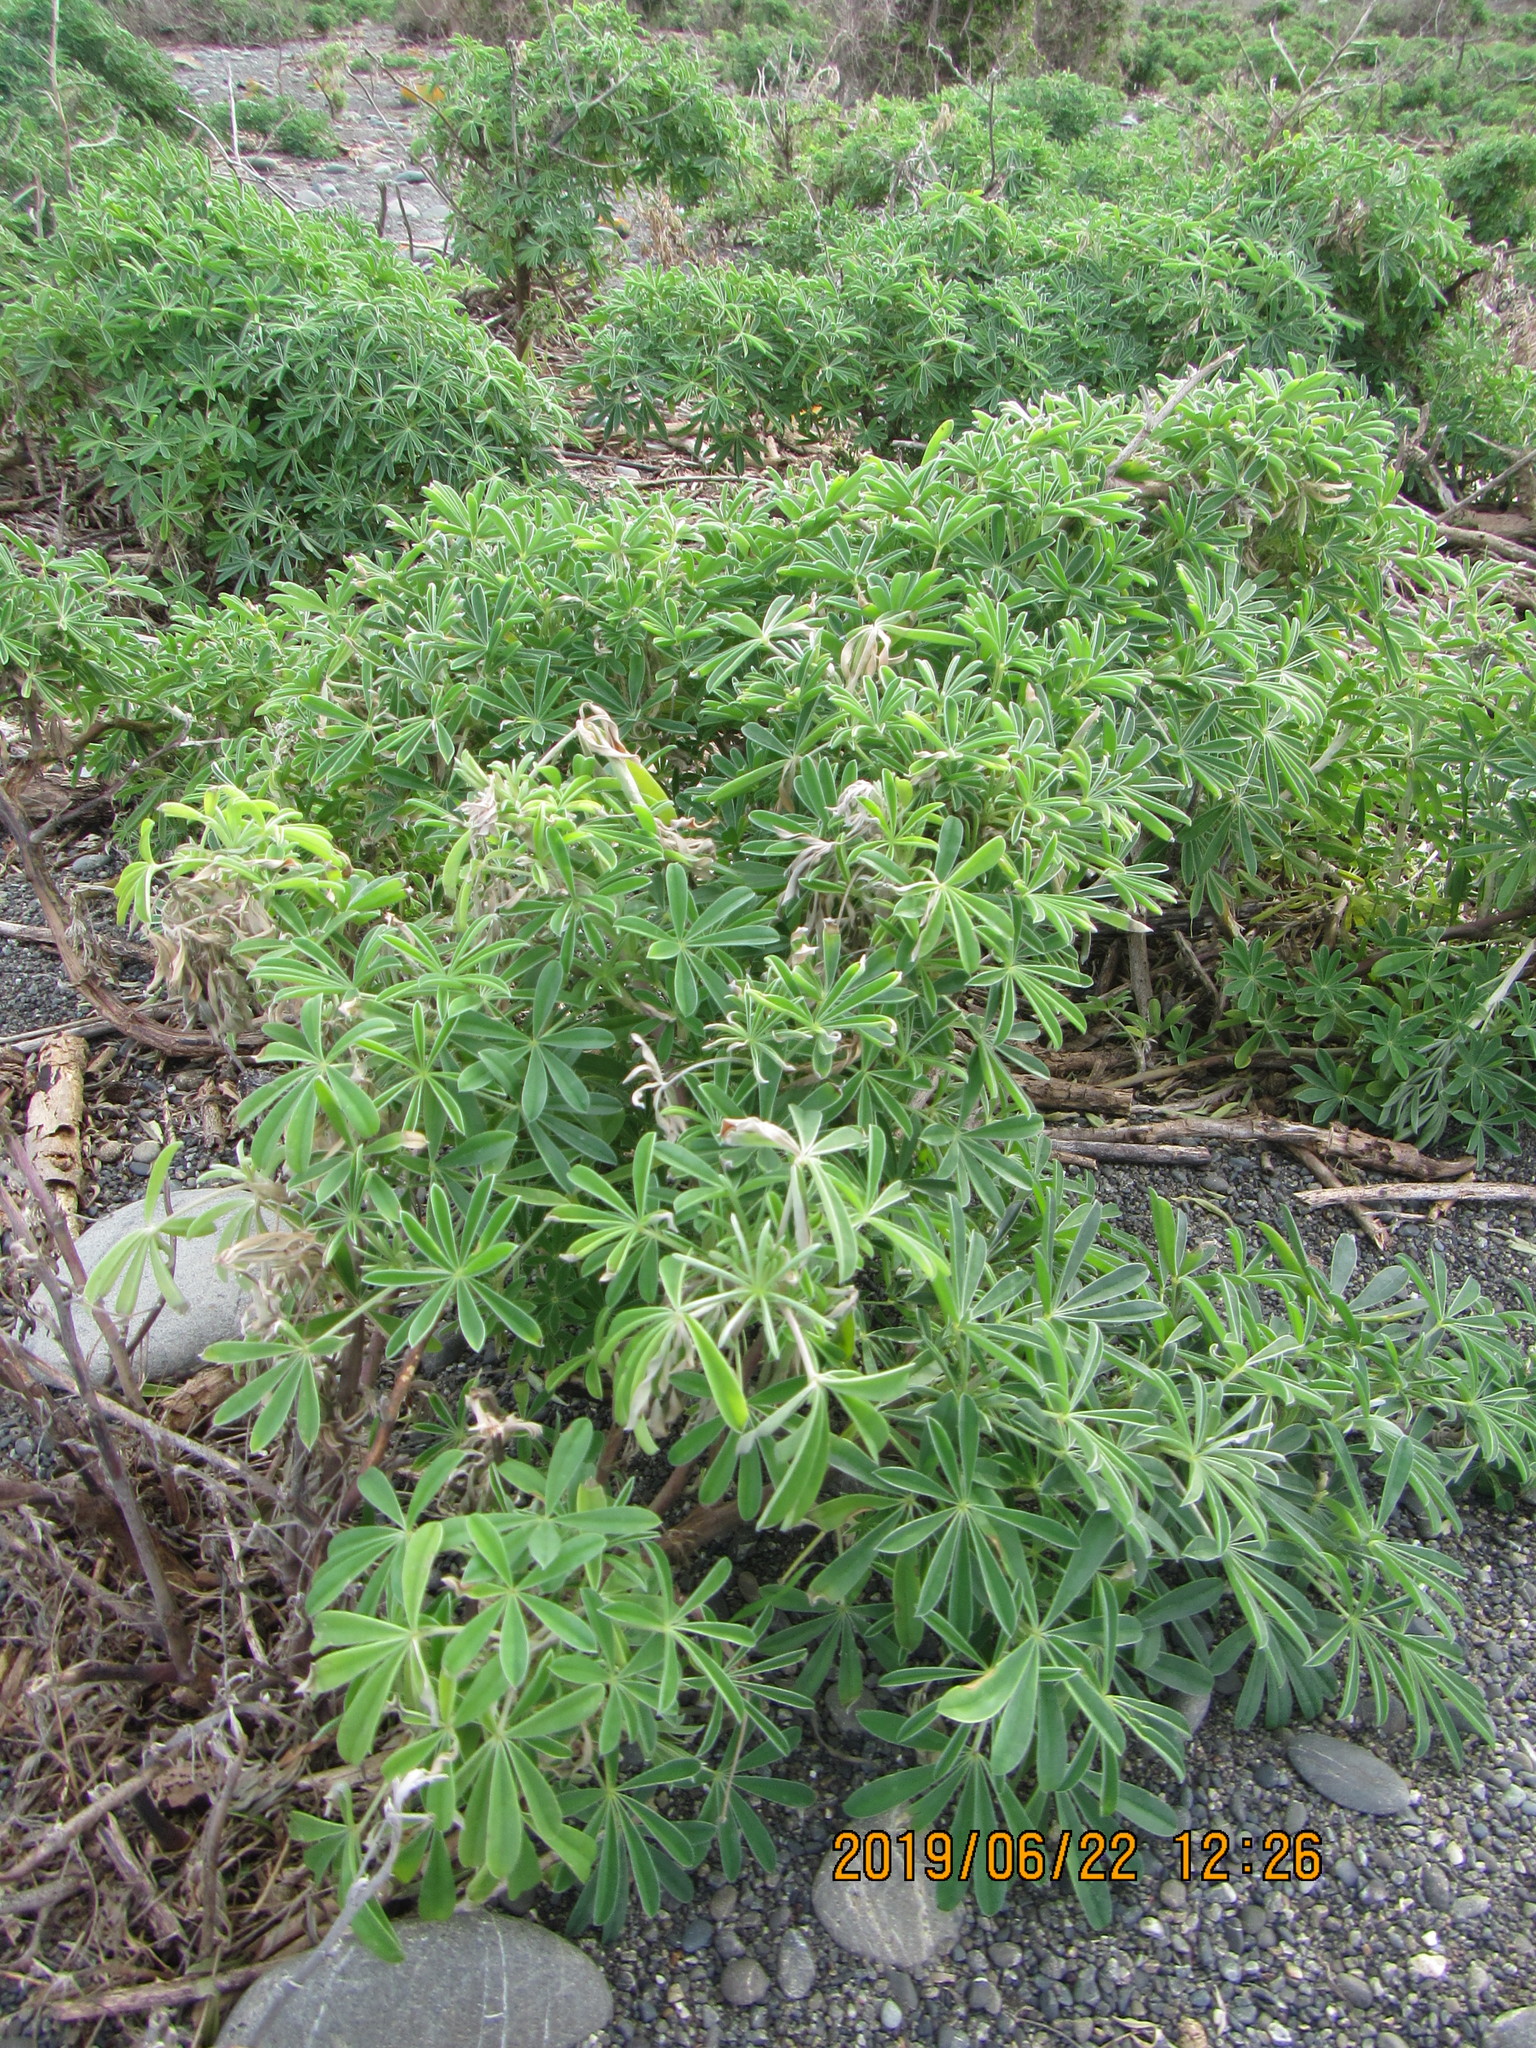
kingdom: Plantae
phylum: Tracheophyta
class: Magnoliopsida
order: Fabales
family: Fabaceae
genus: Lupinus
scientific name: Lupinus arboreus
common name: Yellow bush lupine
